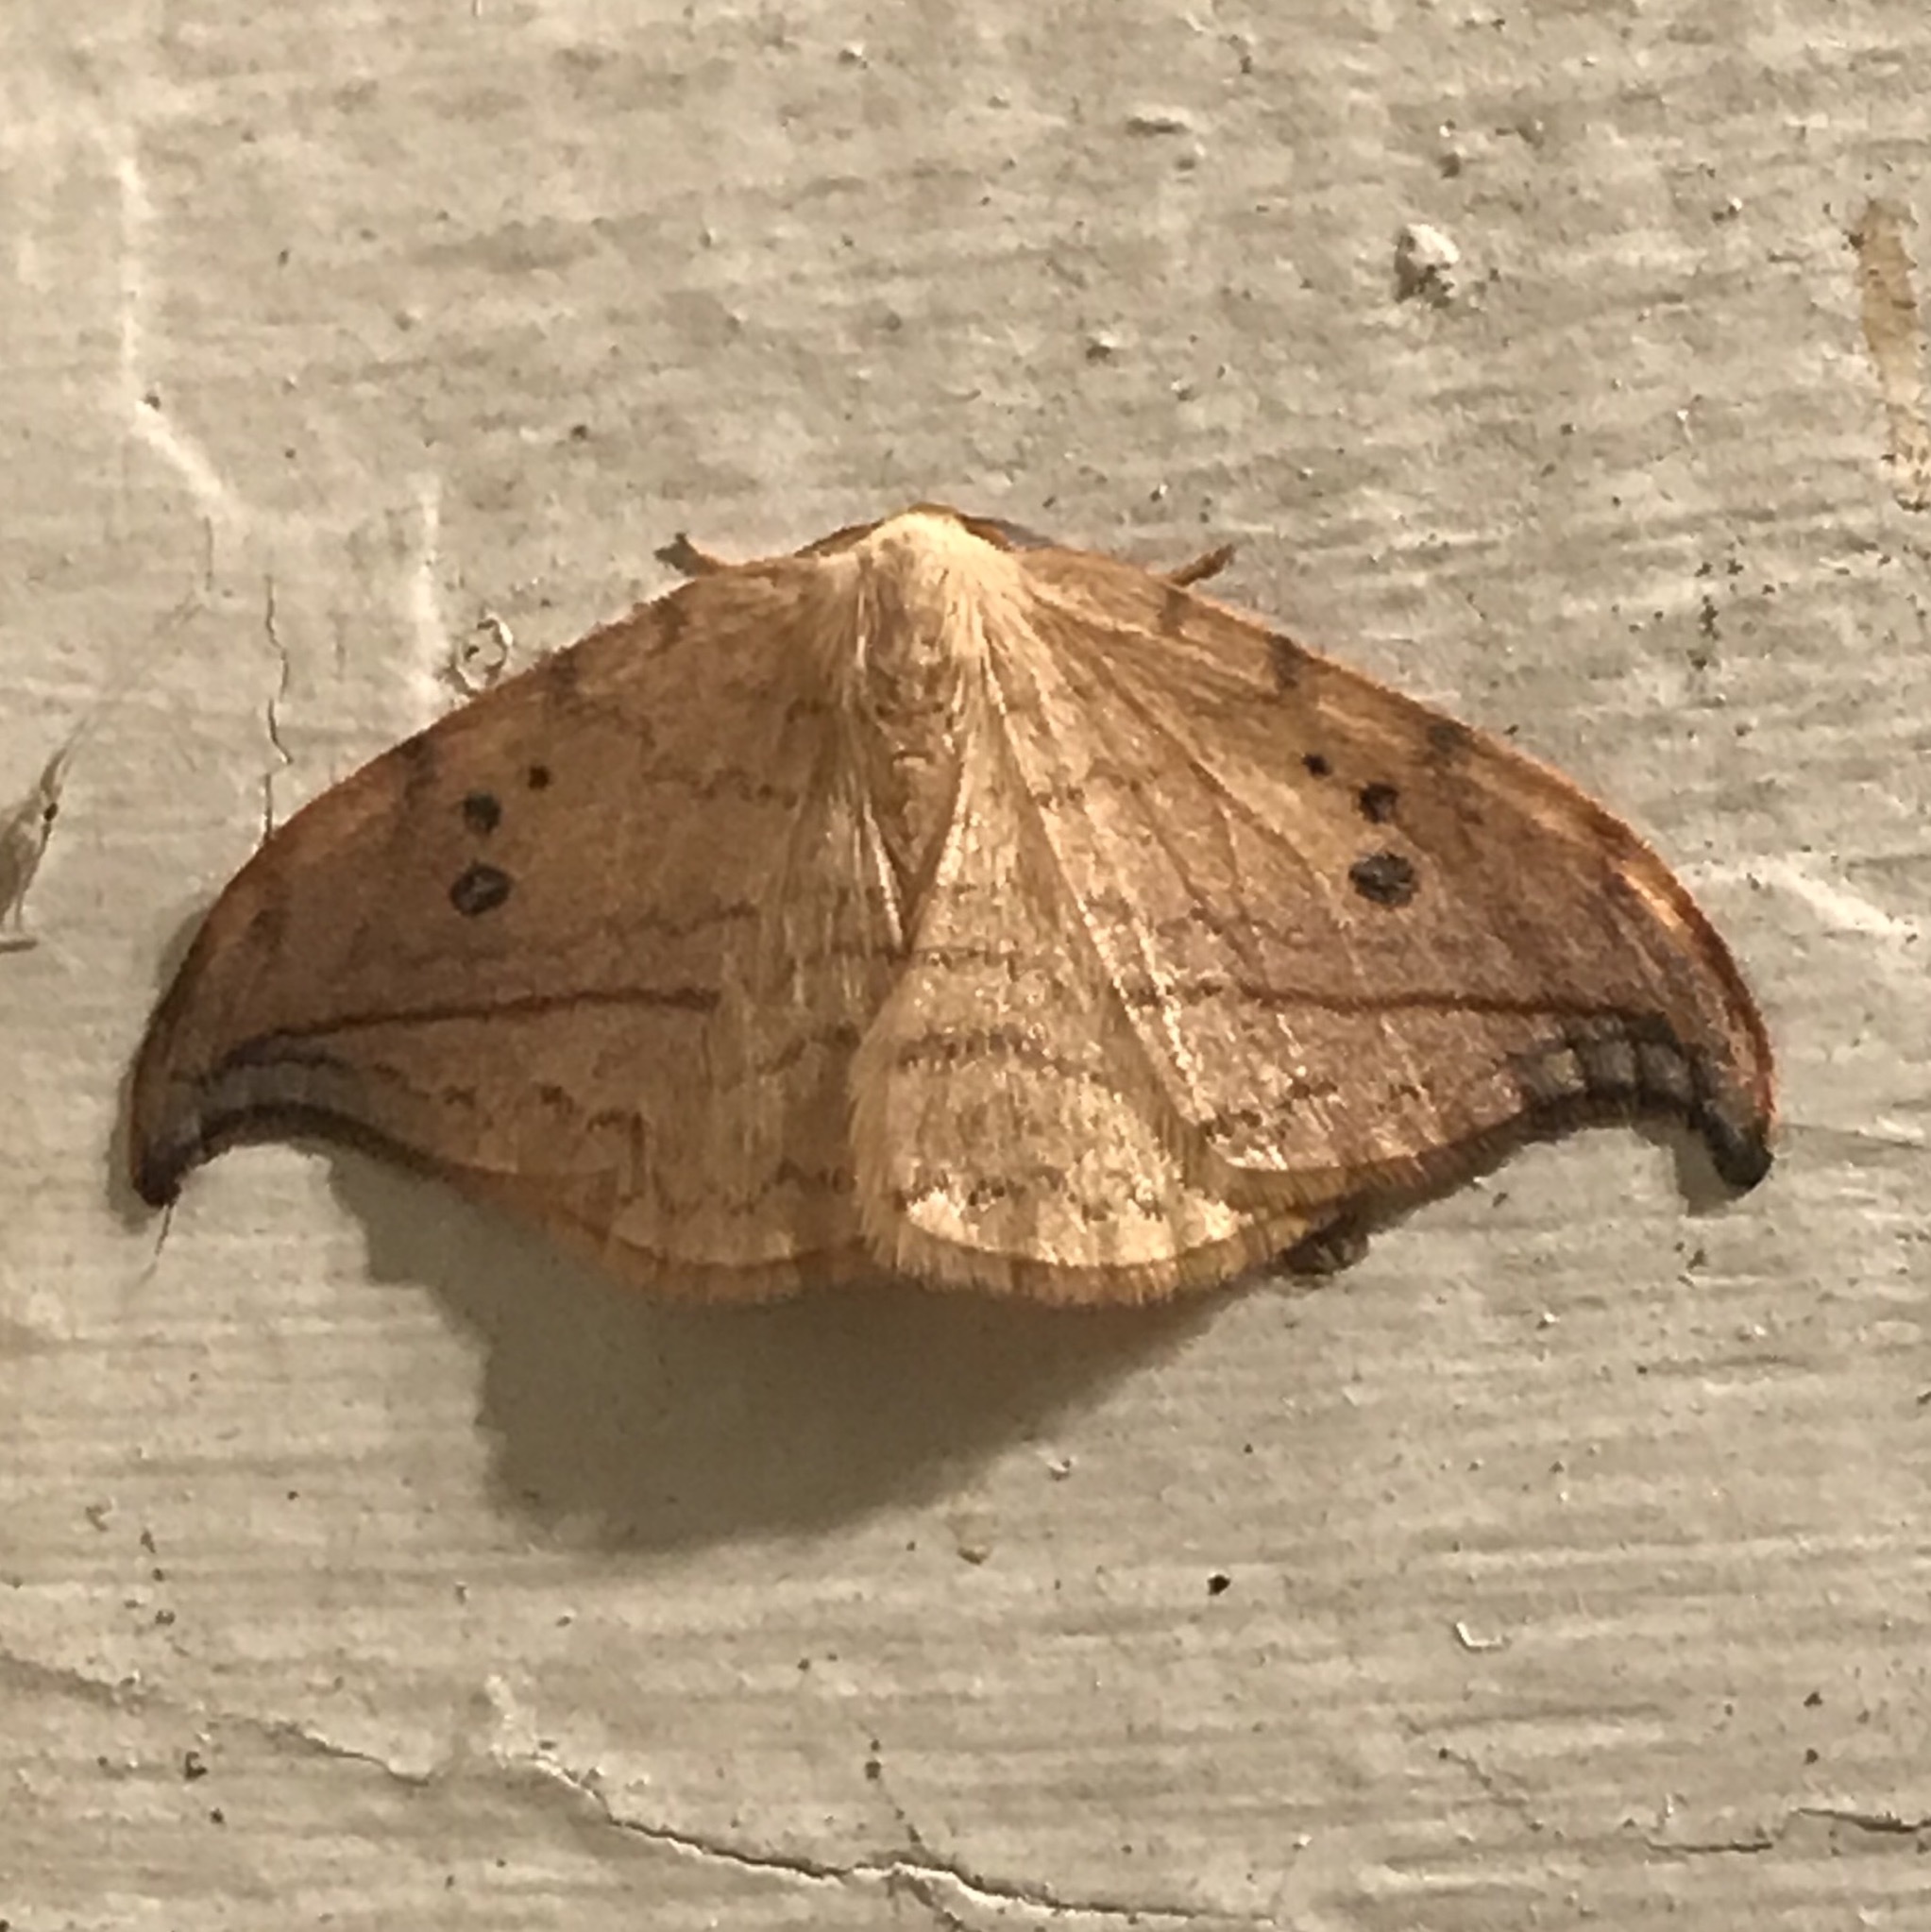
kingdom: Animalia
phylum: Arthropoda
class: Insecta
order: Lepidoptera
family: Drepanidae
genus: Drepana
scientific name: Drepana arcuata
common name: Arched hooktip moth
